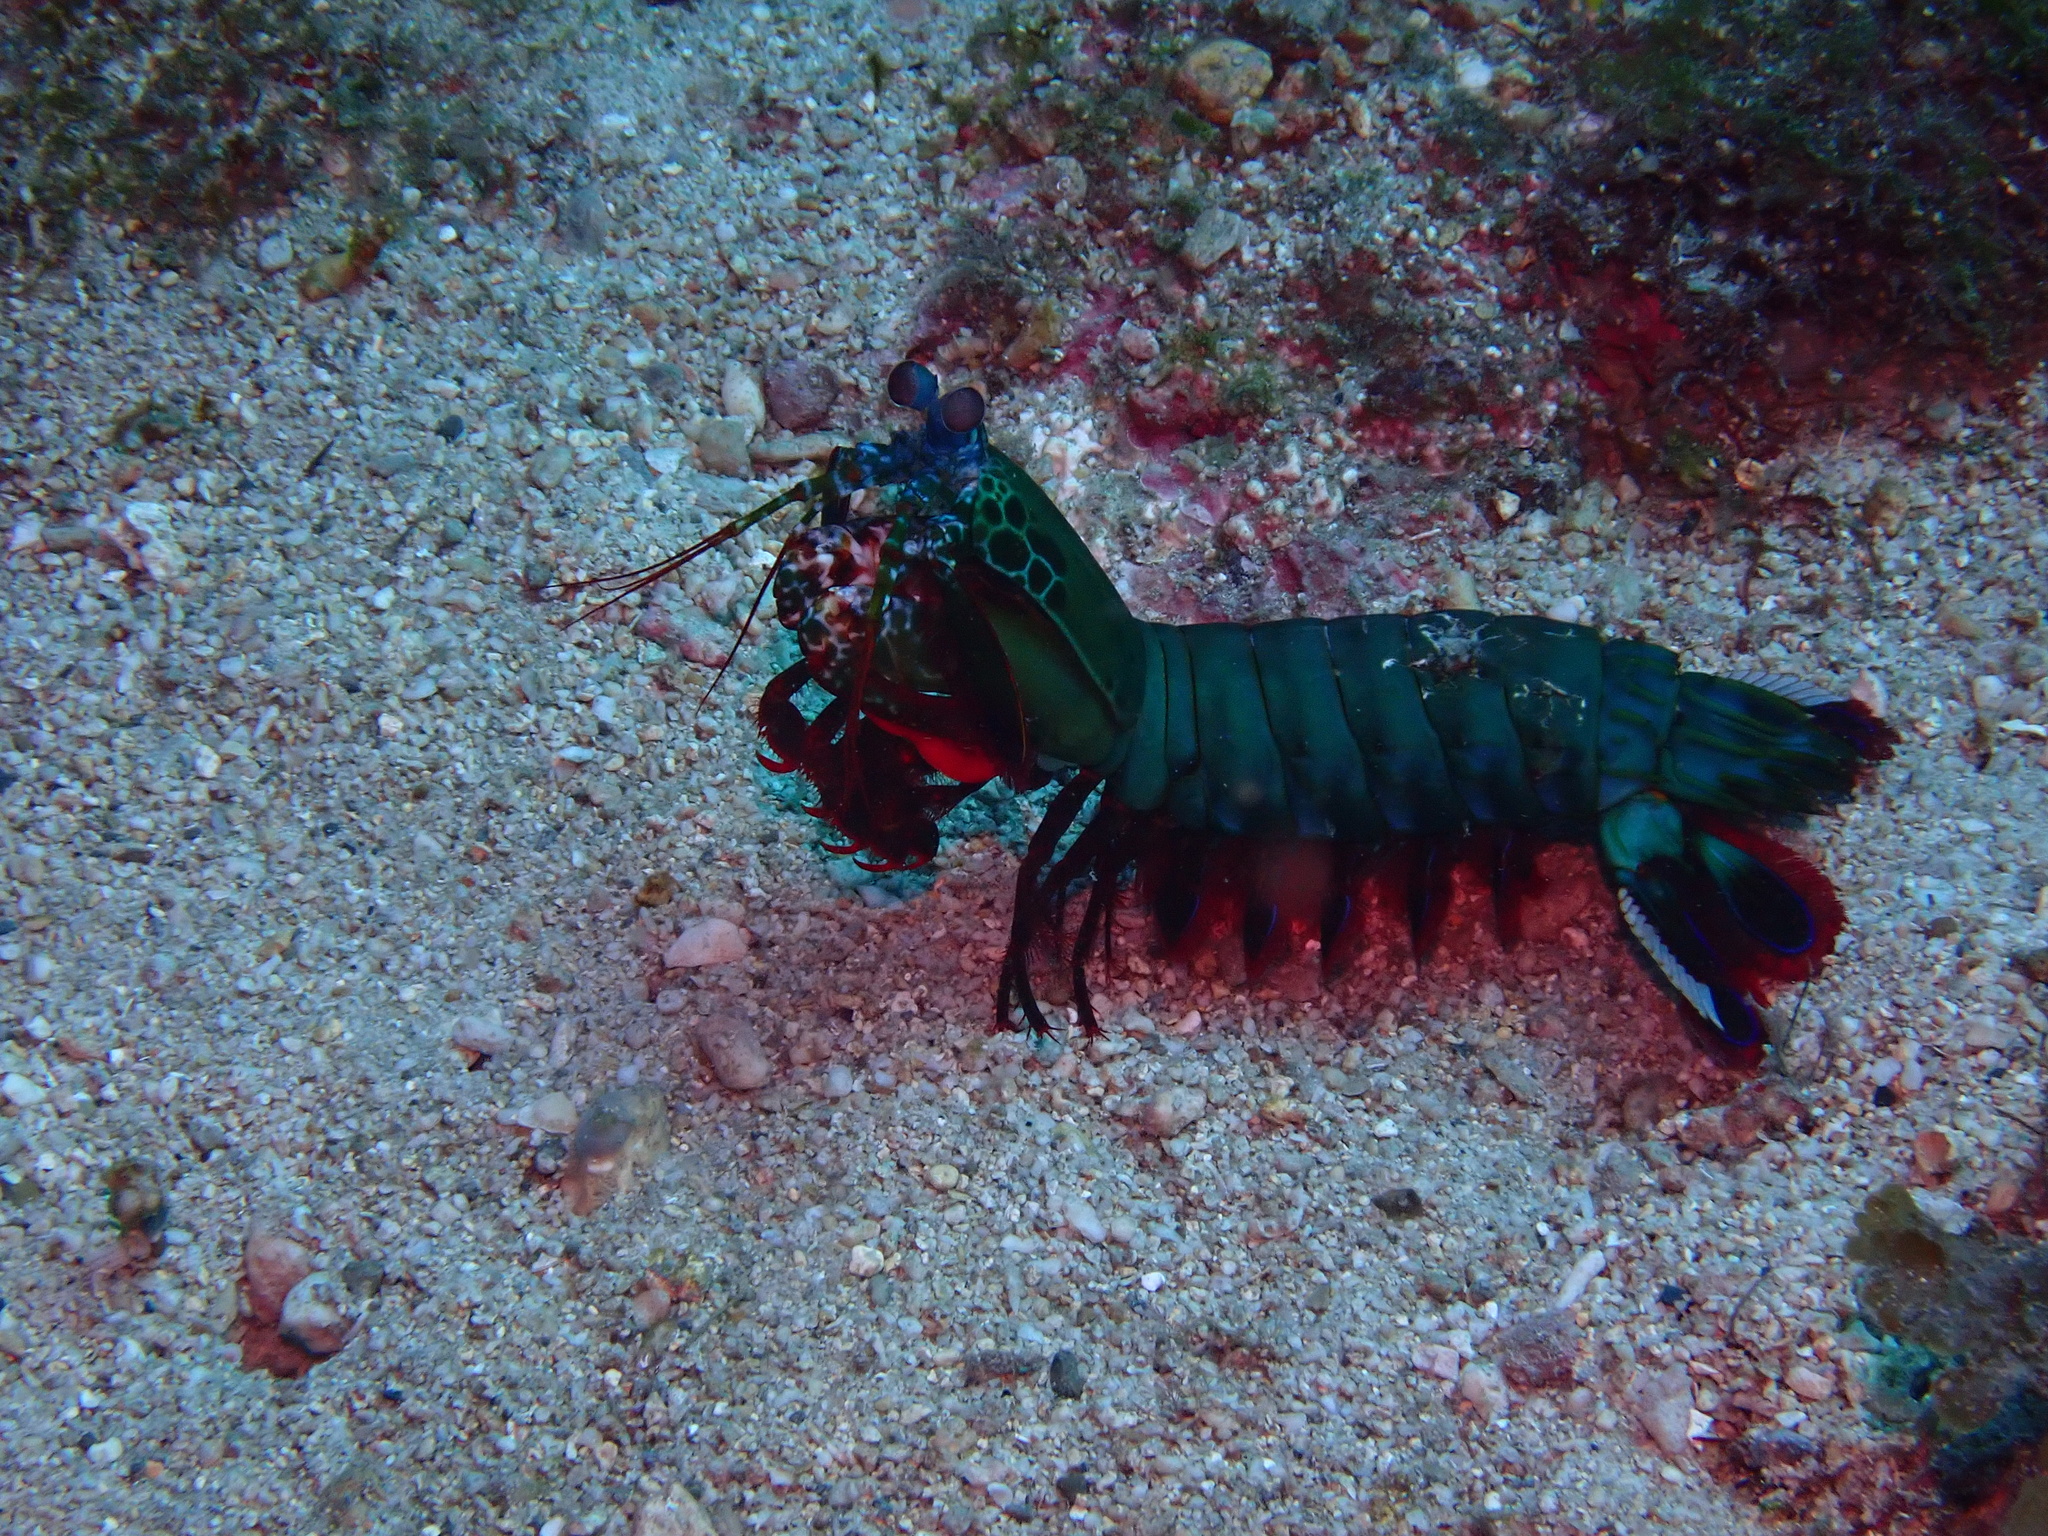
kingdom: Animalia
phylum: Arthropoda
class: Malacostraca
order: Stomatopoda
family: Odontodactylidae
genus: Odontodactylus
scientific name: Odontodactylus scyllarus
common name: Peacock mantis shrimp
